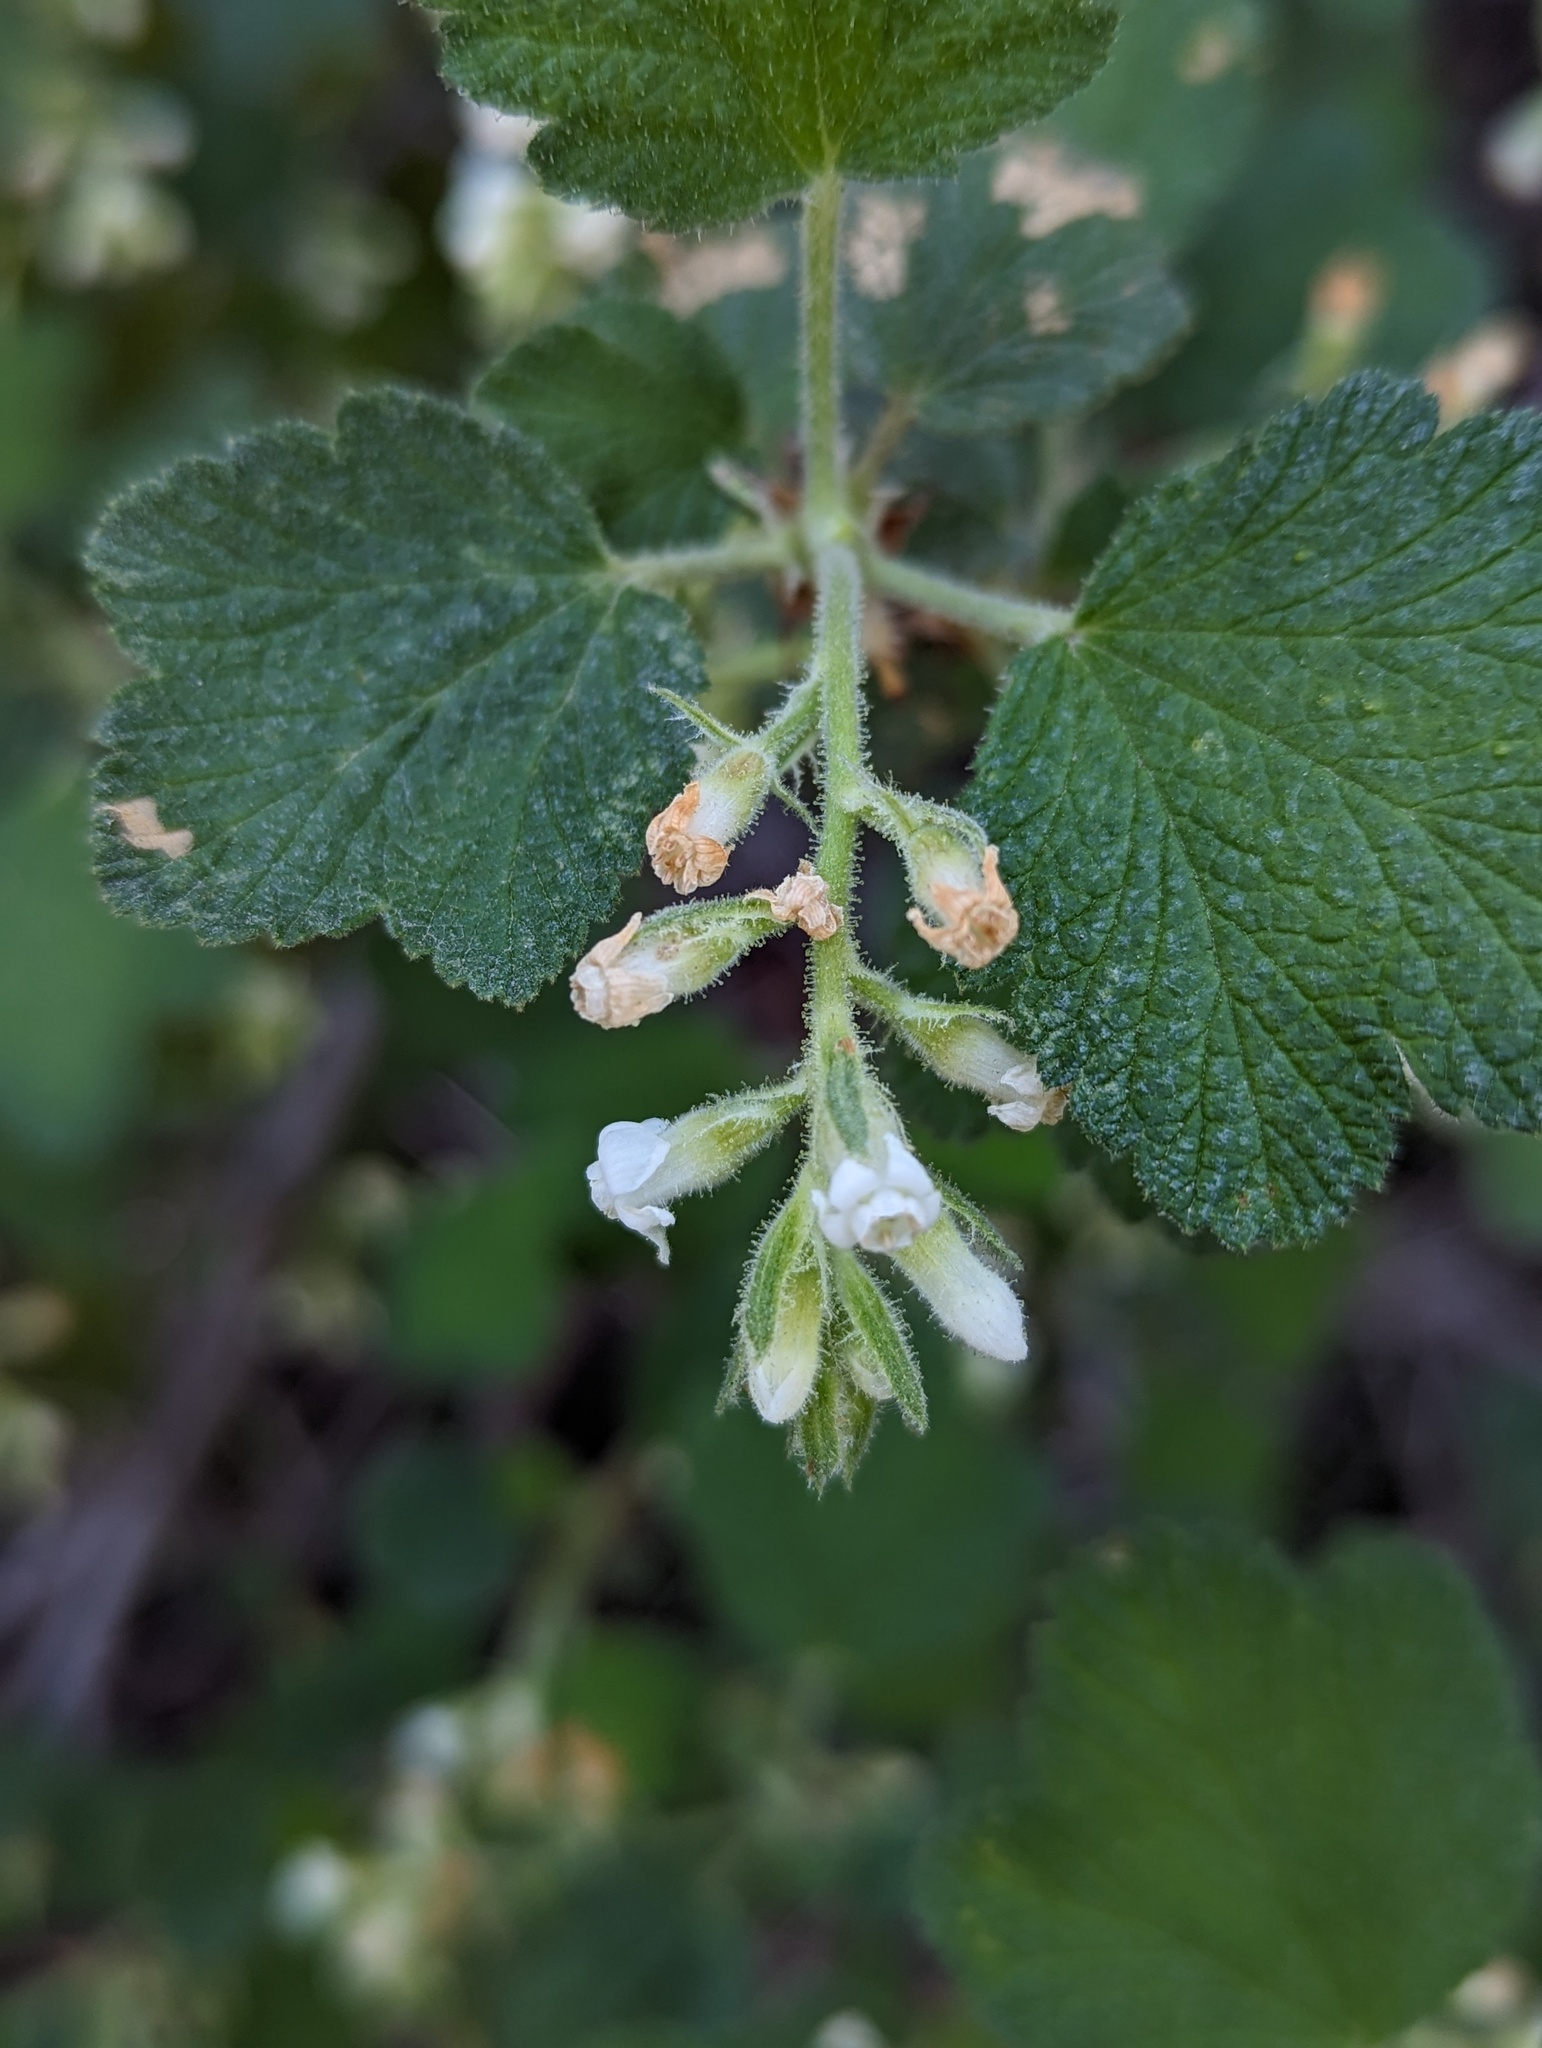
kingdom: Plantae
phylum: Tracheophyta
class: Magnoliopsida
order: Saxifragales
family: Grossulariaceae
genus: Ribes
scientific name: Ribes indecorum
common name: White-flower currant
